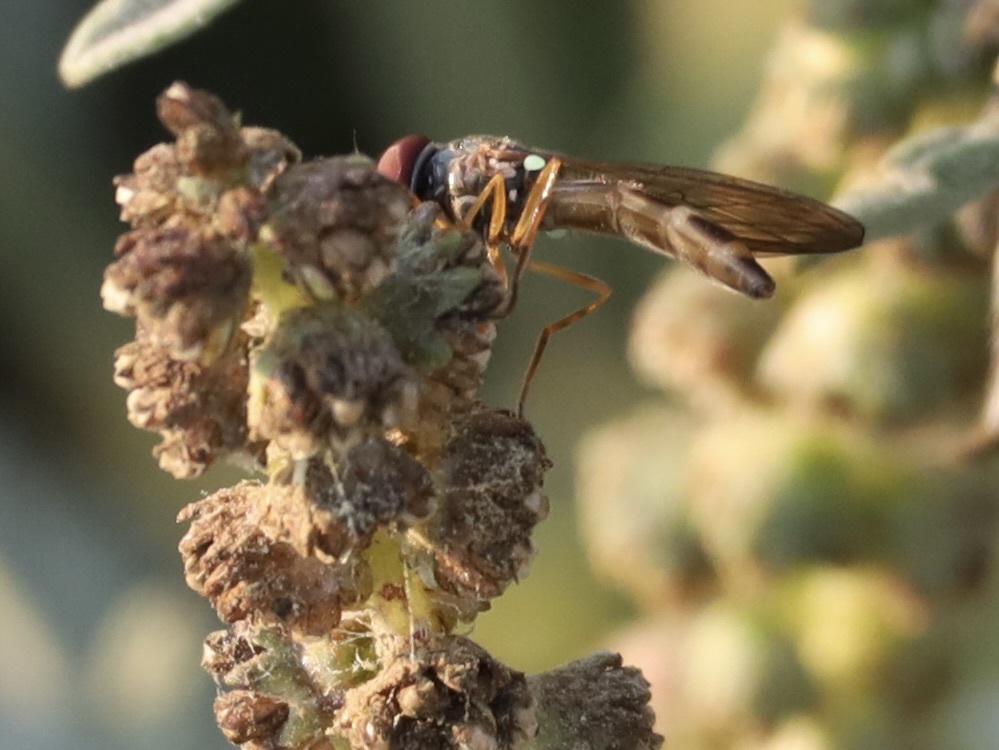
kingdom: Animalia
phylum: Arthropoda
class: Insecta
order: Diptera
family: Syrphidae
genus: Melanostoma
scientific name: Melanostoma mellina
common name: Hover fly
